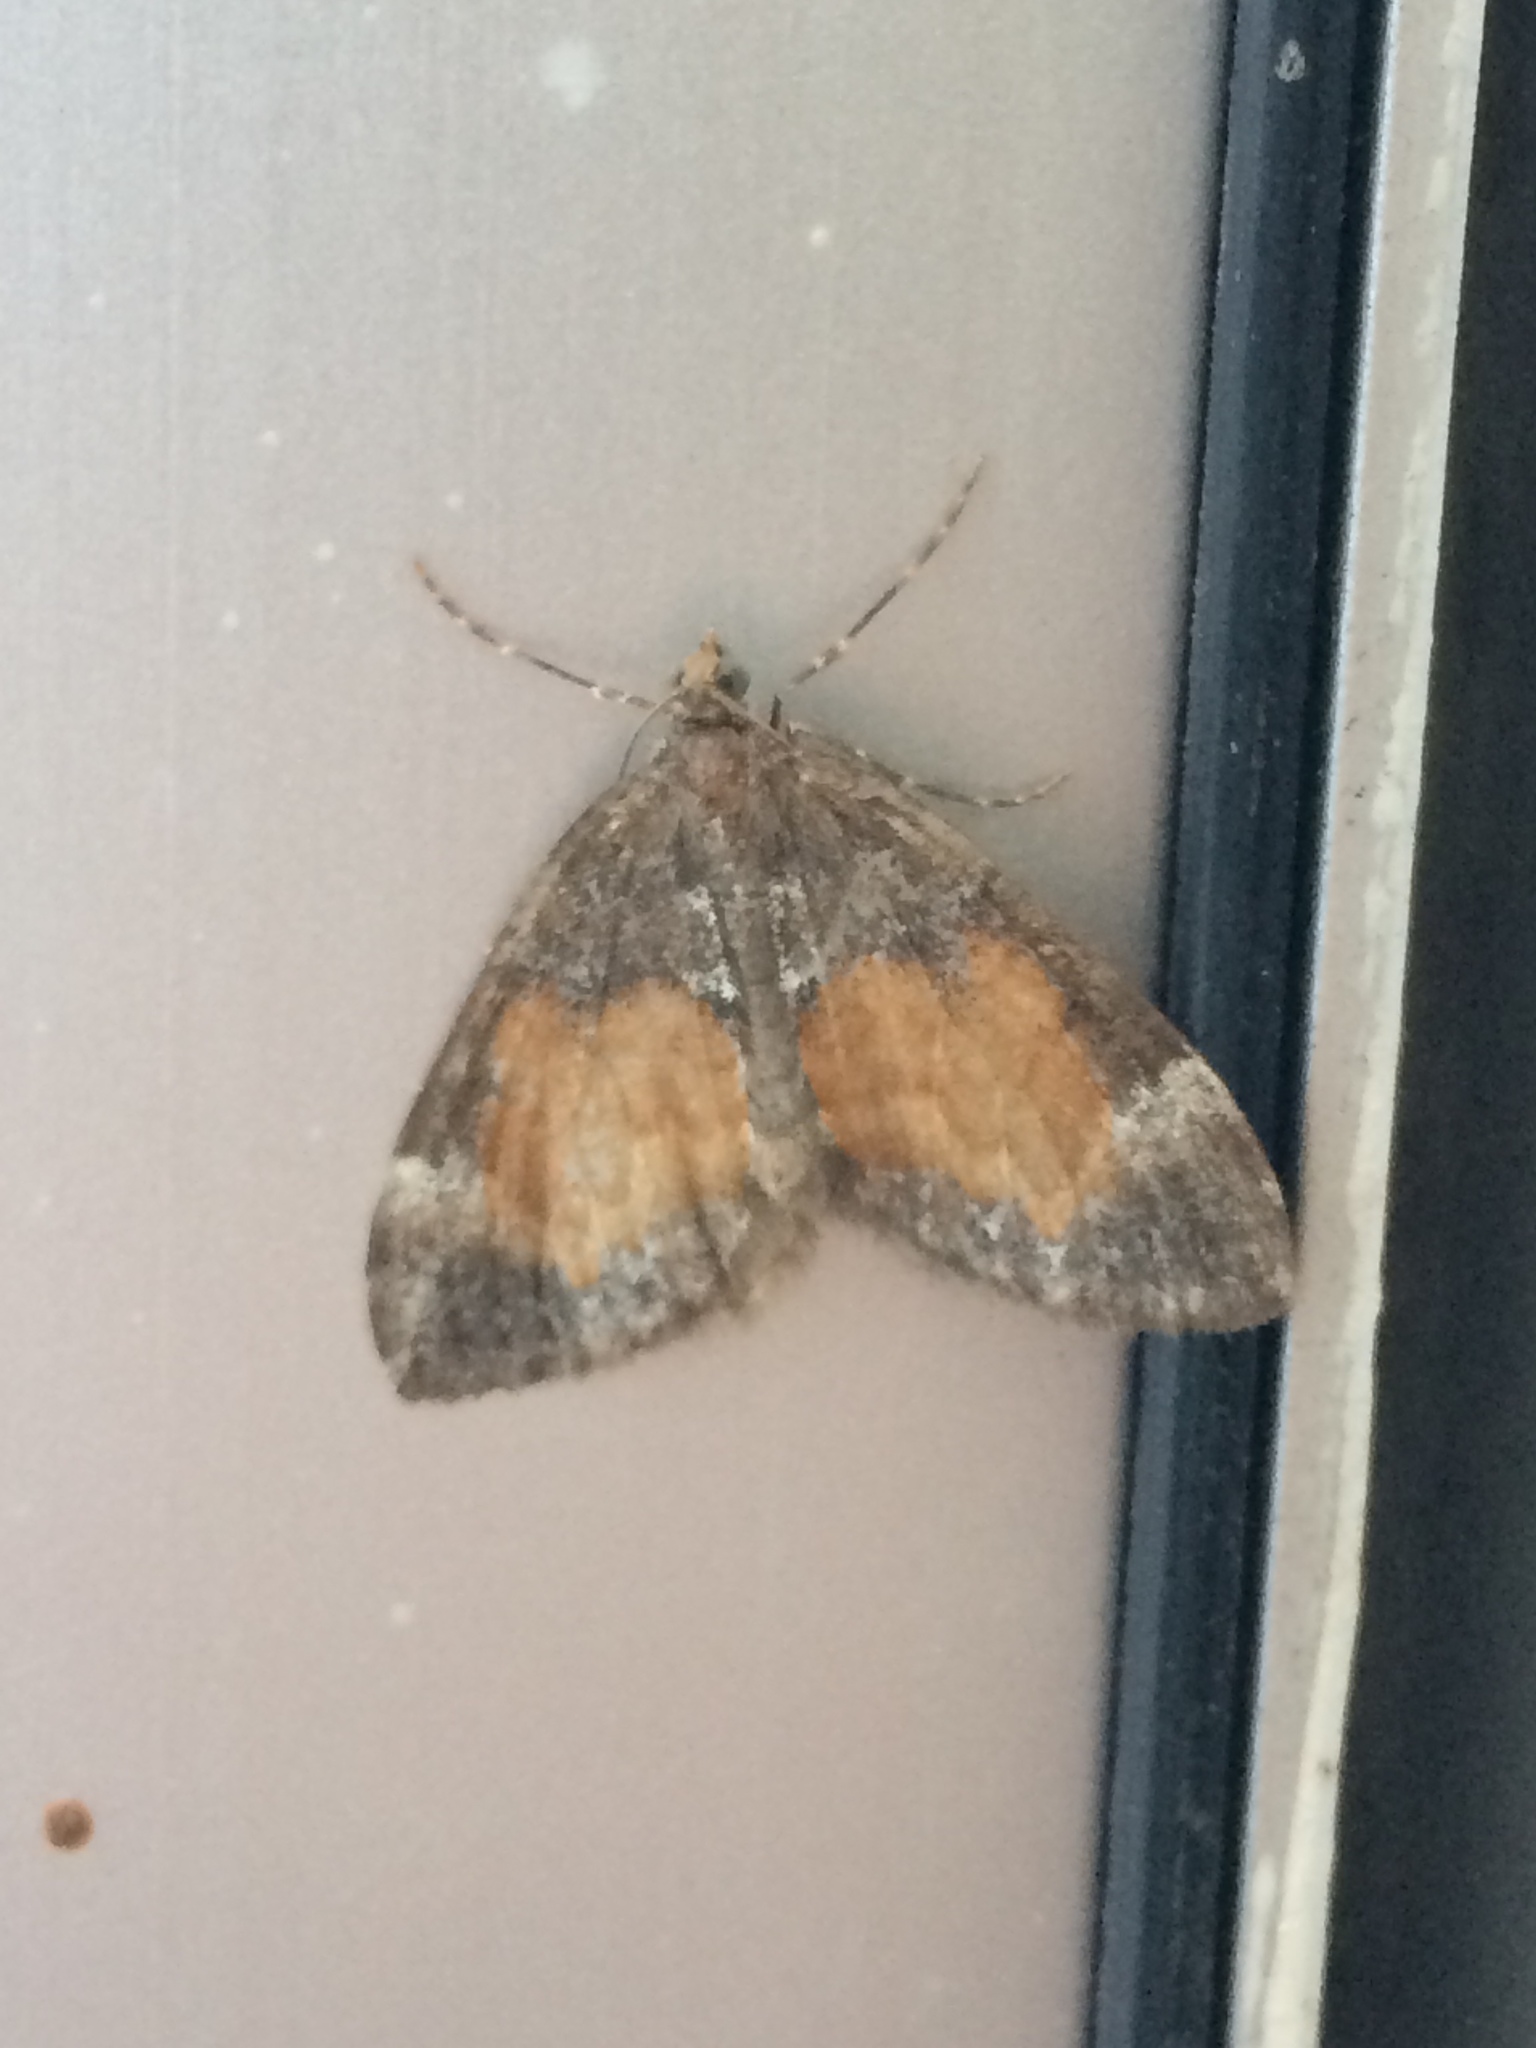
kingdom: Animalia
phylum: Arthropoda
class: Insecta
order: Lepidoptera
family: Geometridae
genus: Dysstroma
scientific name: Dysstroma truncata
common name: Common marbled carpet
